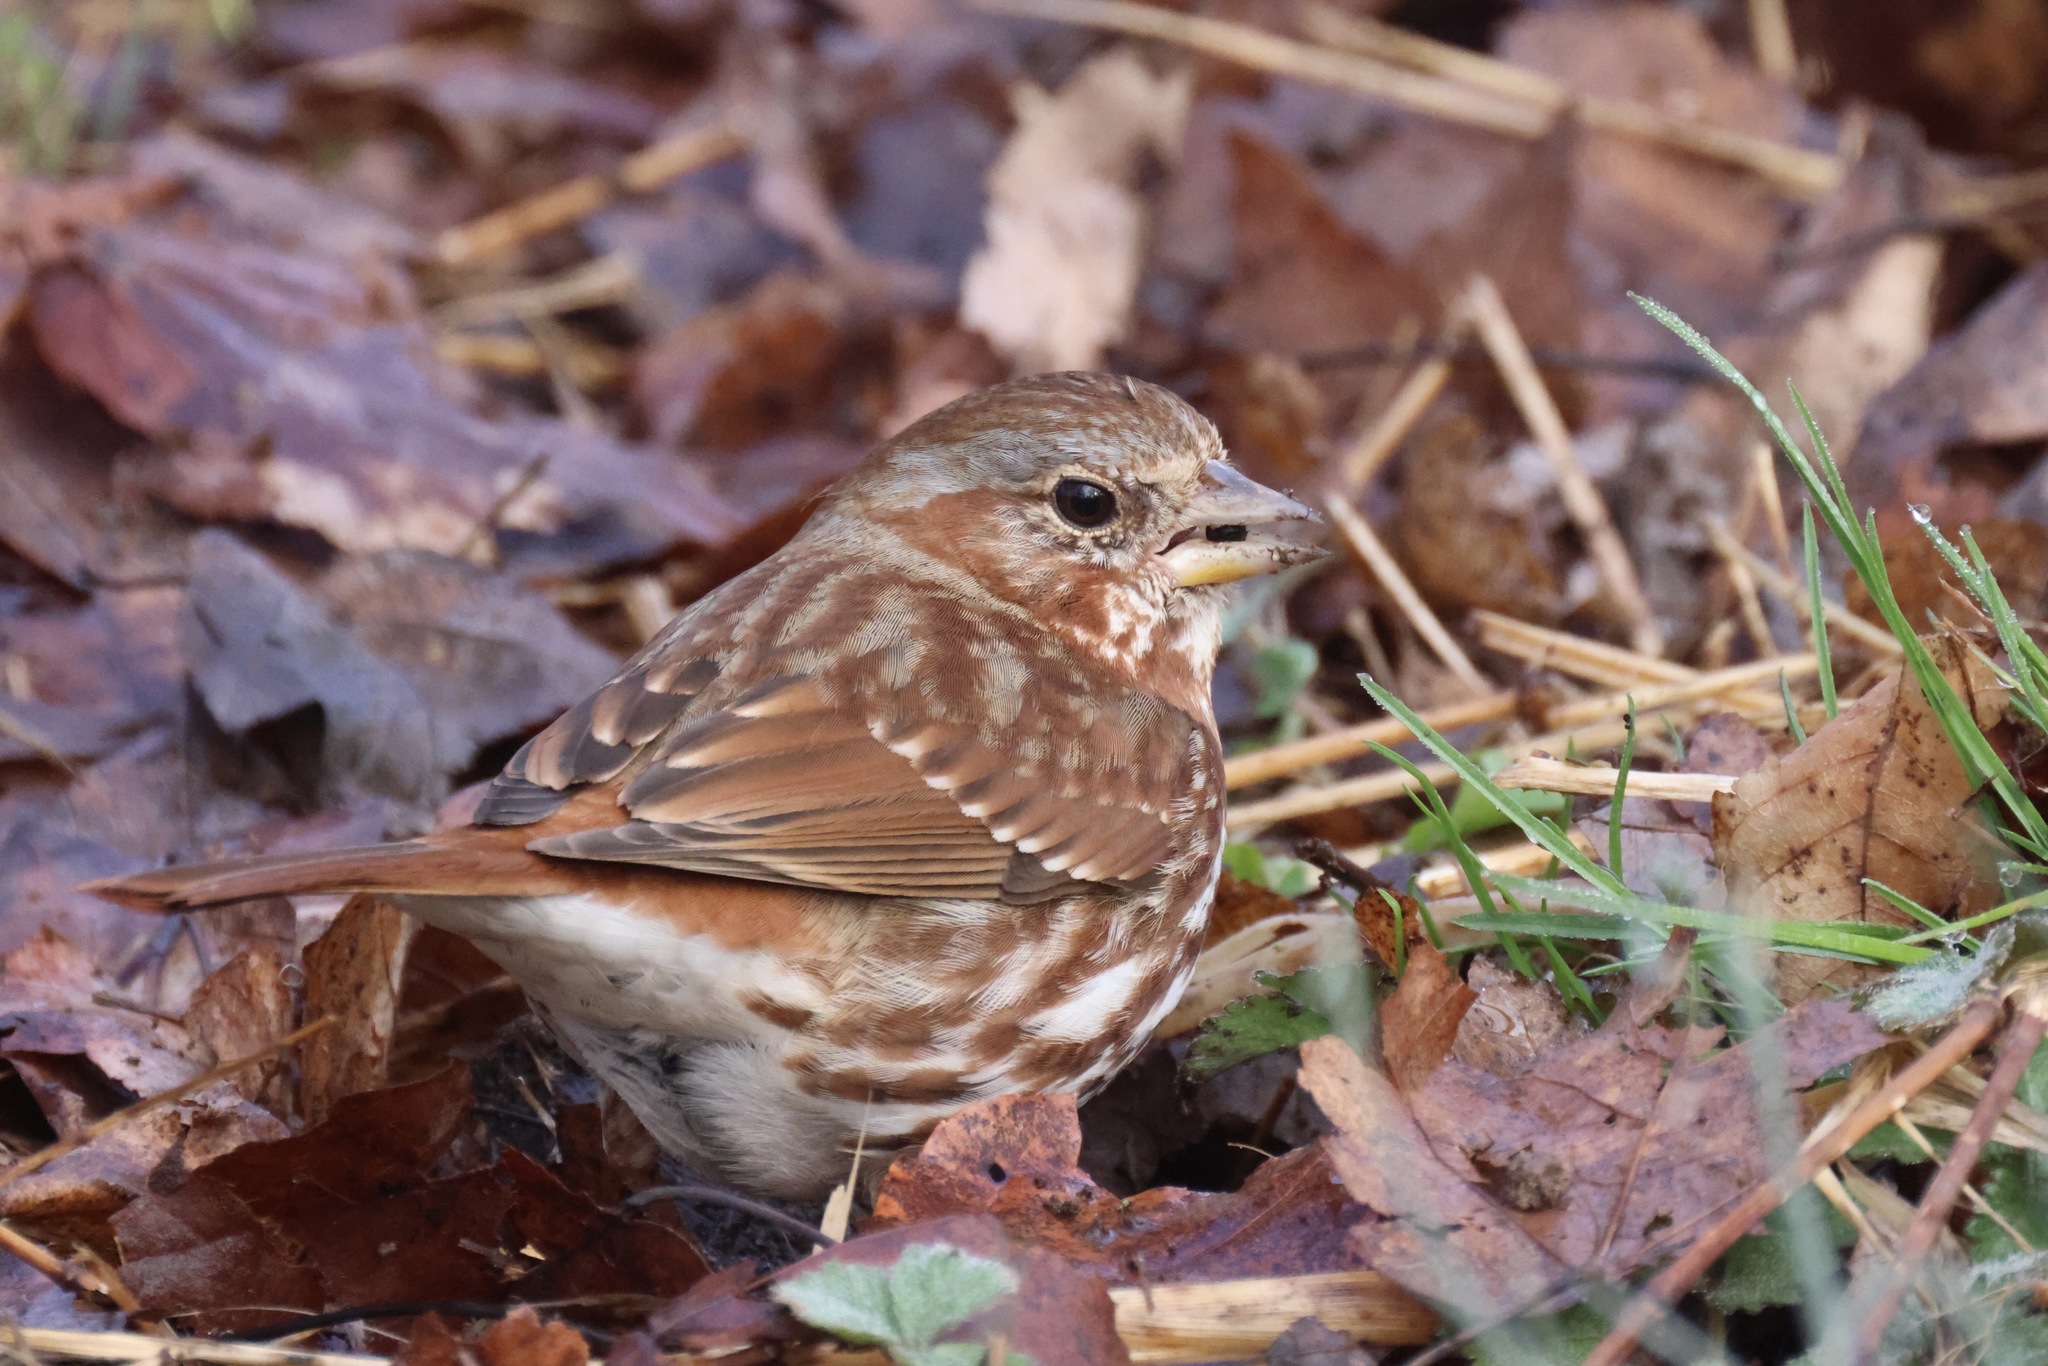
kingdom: Animalia
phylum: Chordata
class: Aves
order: Passeriformes
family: Passerellidae
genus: Passerella
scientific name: Passerella iliaca
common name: Fox sparrow
